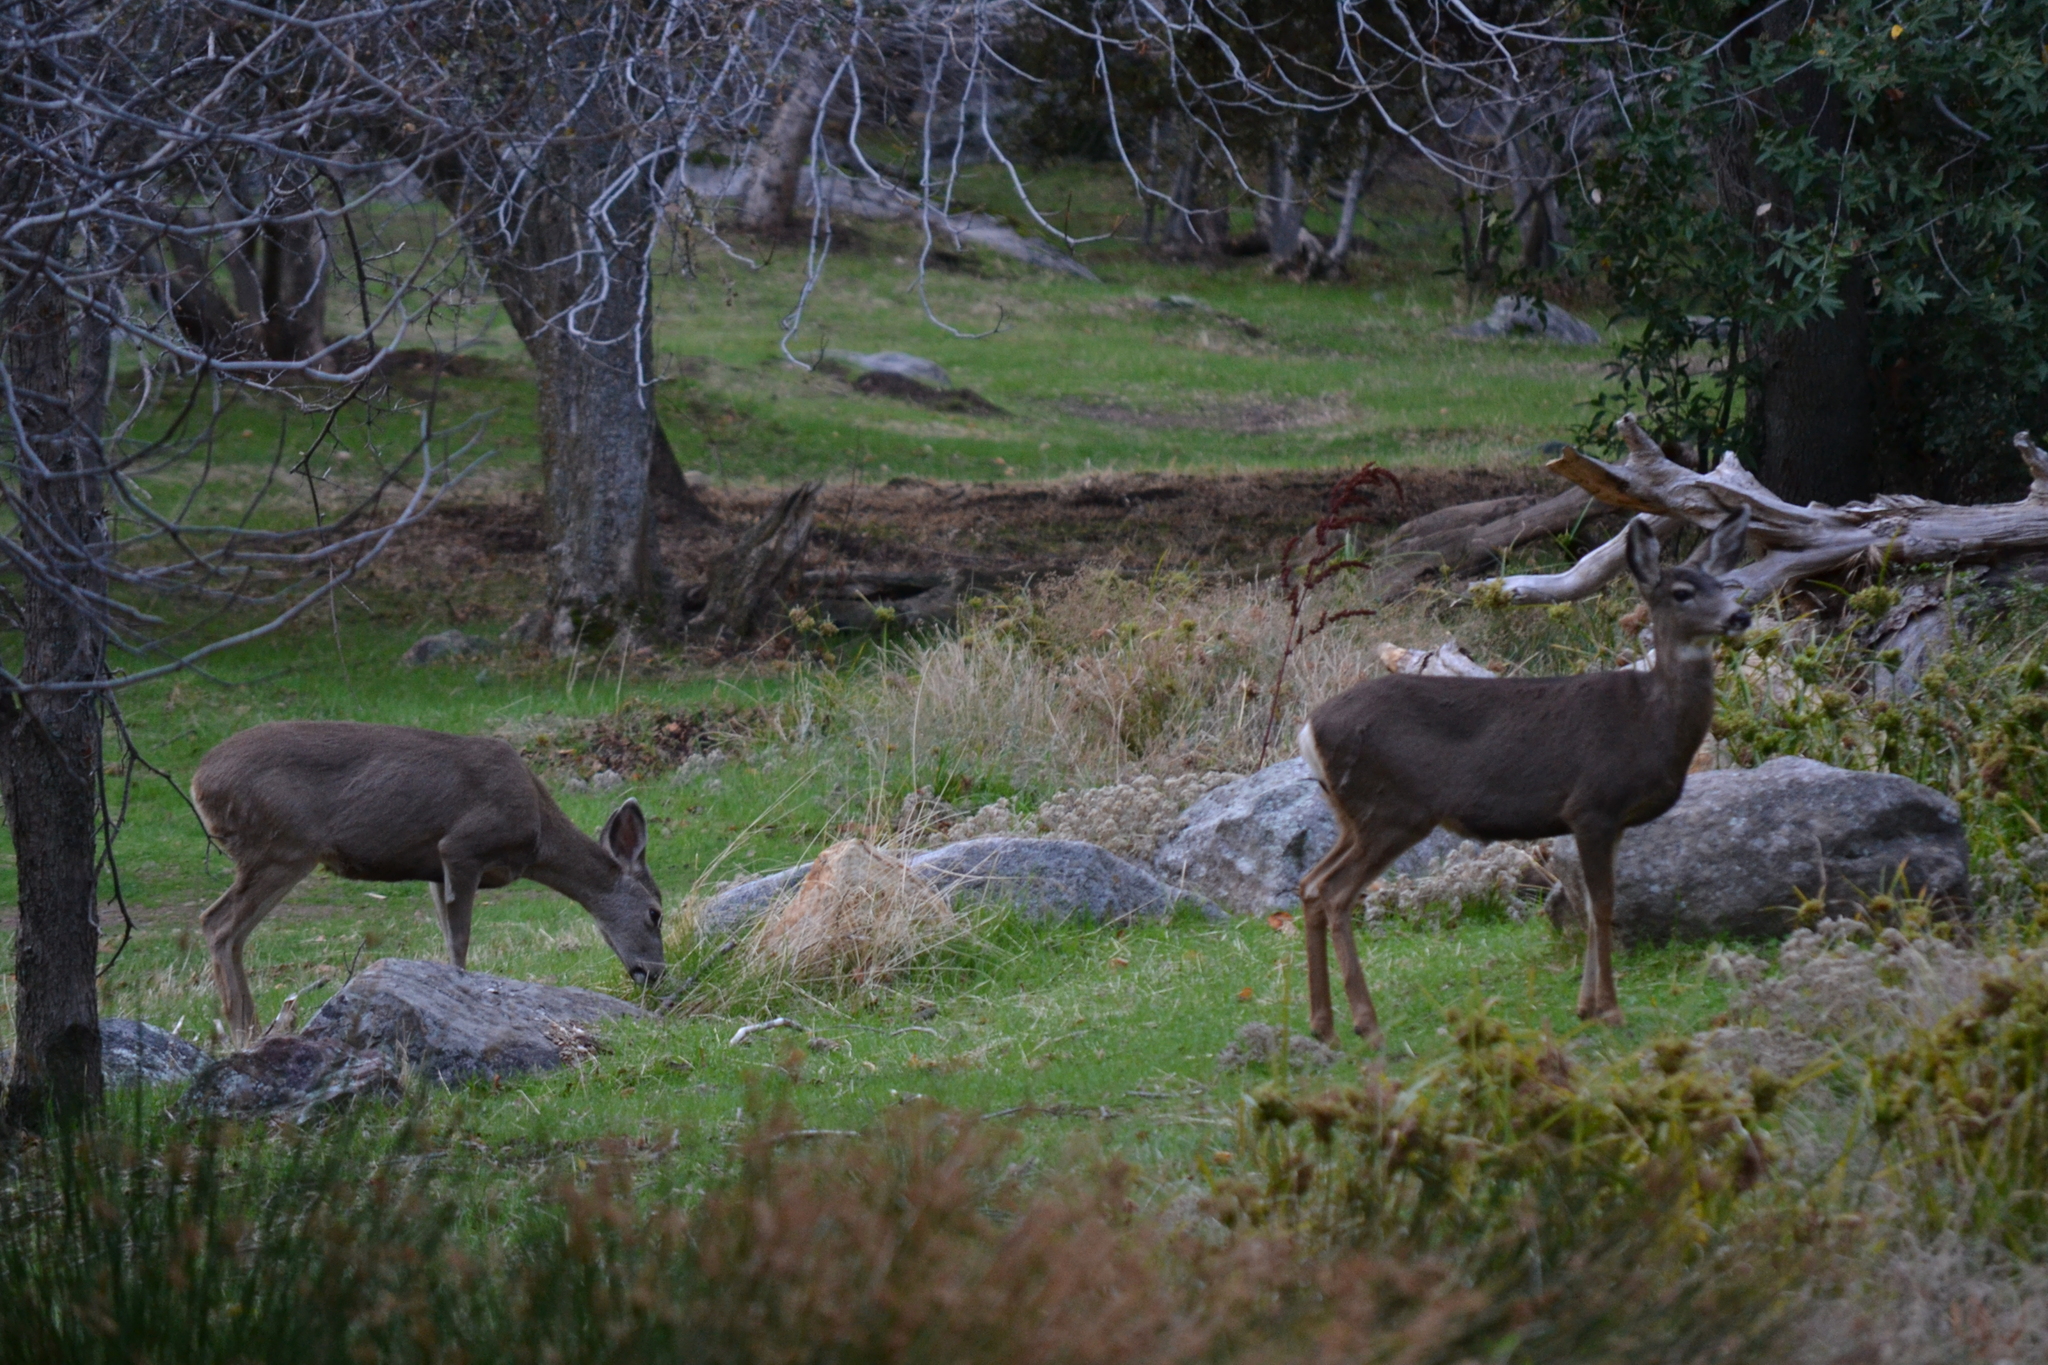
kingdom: Animalia
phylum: Chordata
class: Mammalia
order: Artiodactyla
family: Cervidae
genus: Odocoileus
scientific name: Odocoileus hemionus
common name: Mule deer
